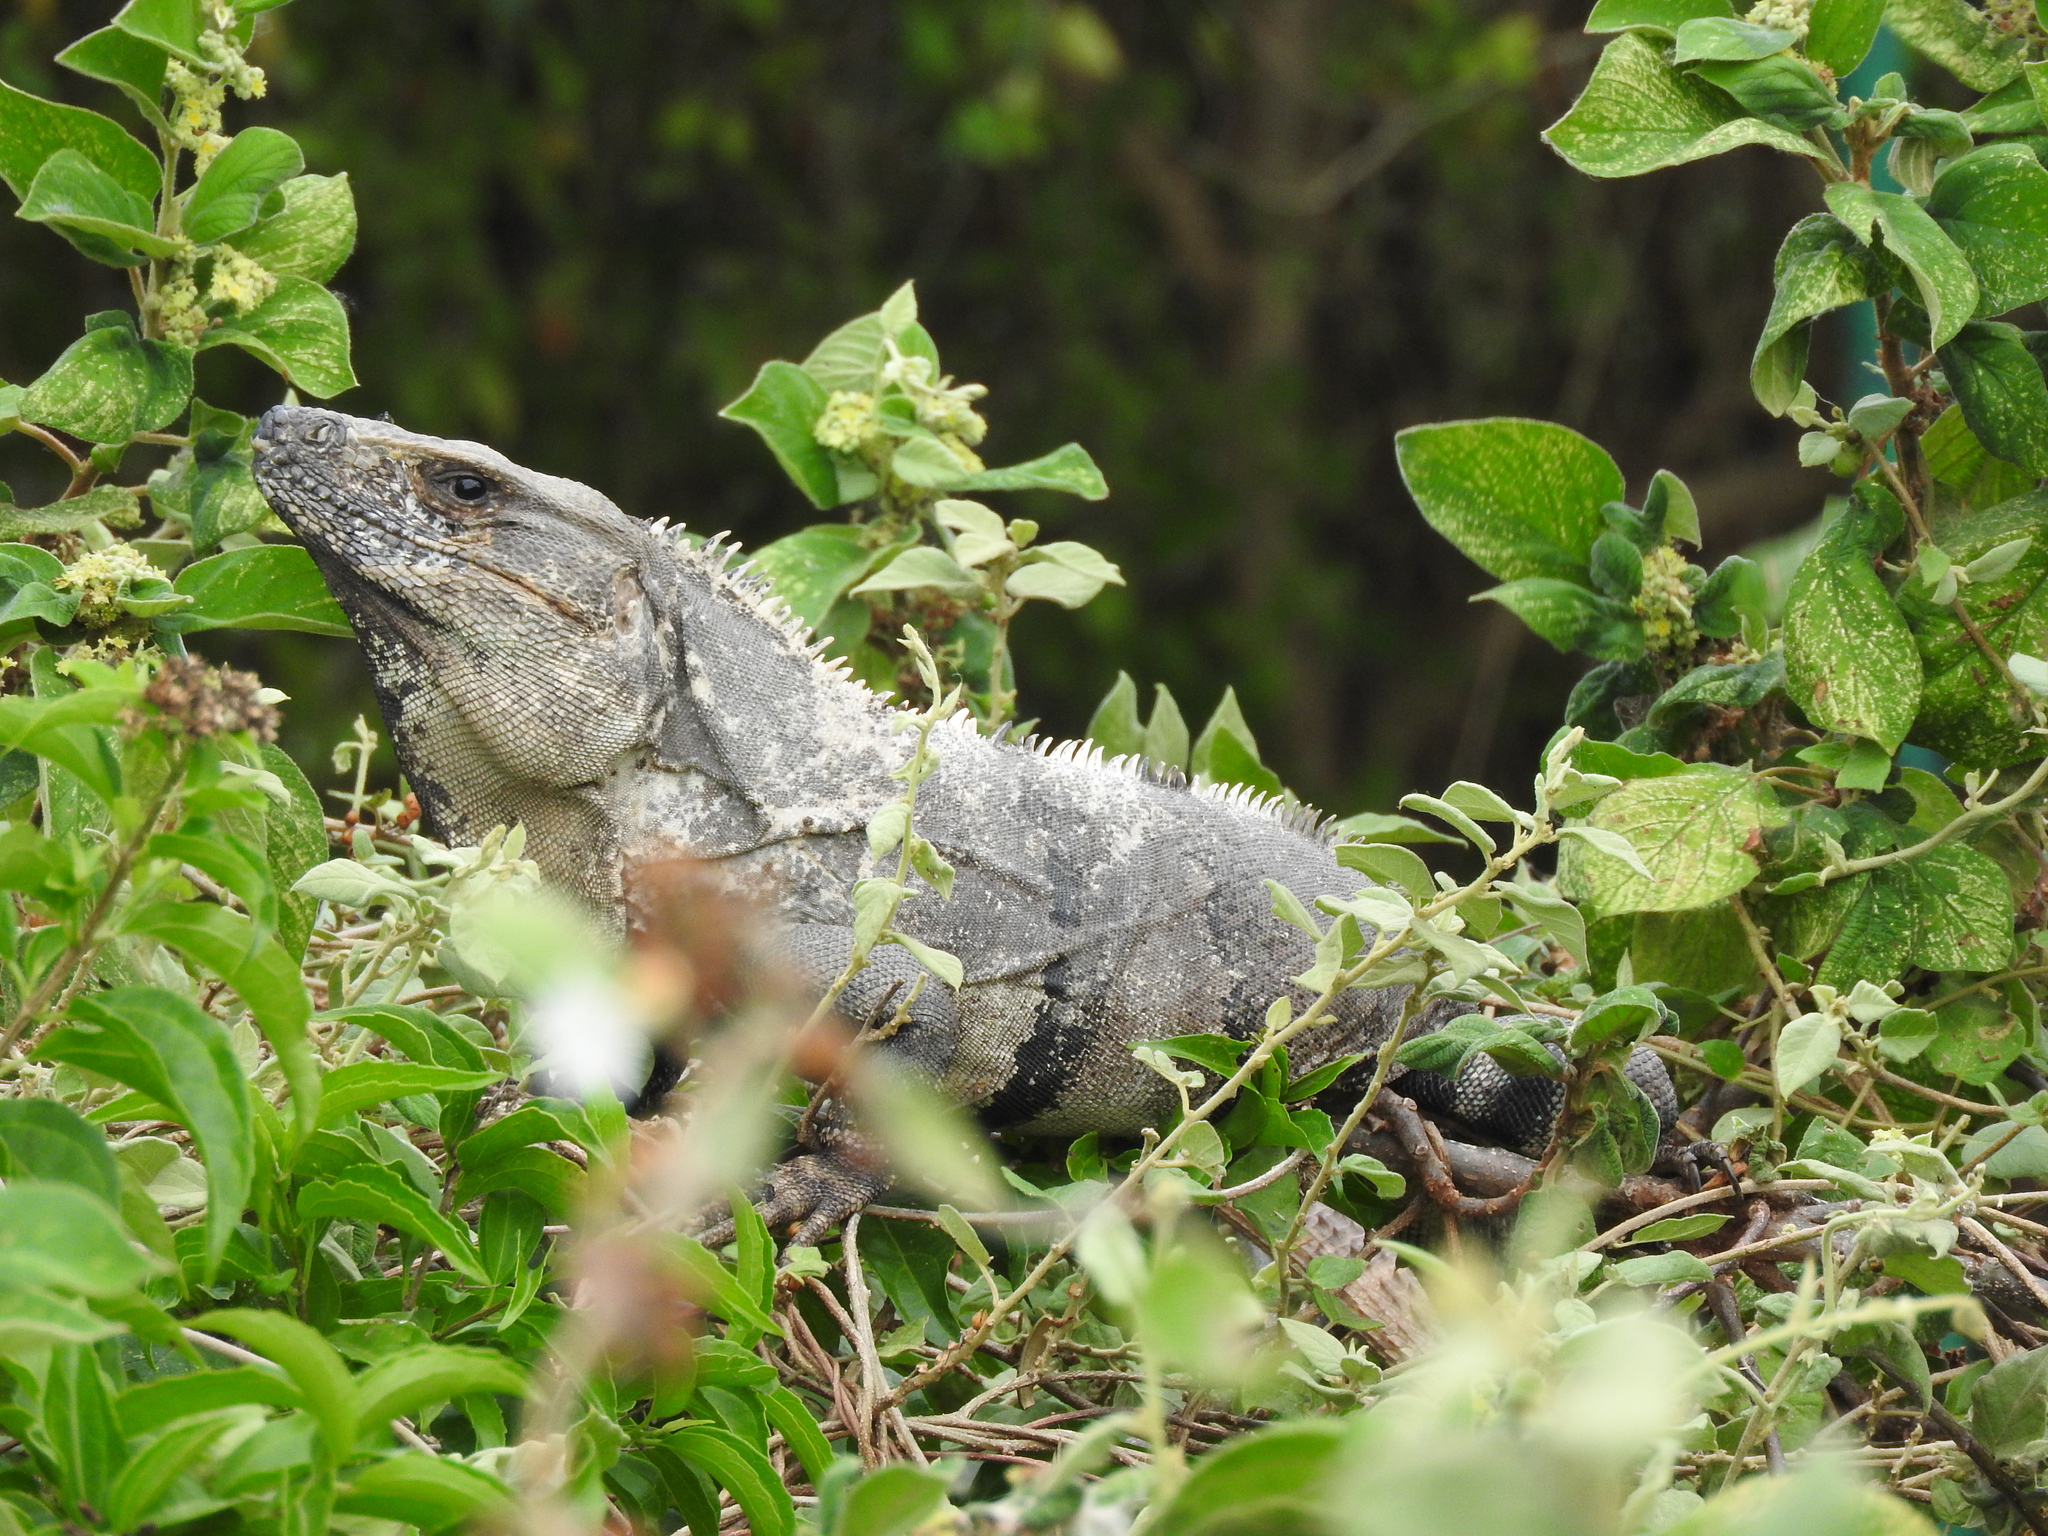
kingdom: Animalia
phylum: Chordata
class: Squamata
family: Iguanidae
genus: Ctenosaura
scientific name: Ctenosaura similis
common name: Black spiny-tailed iguana
